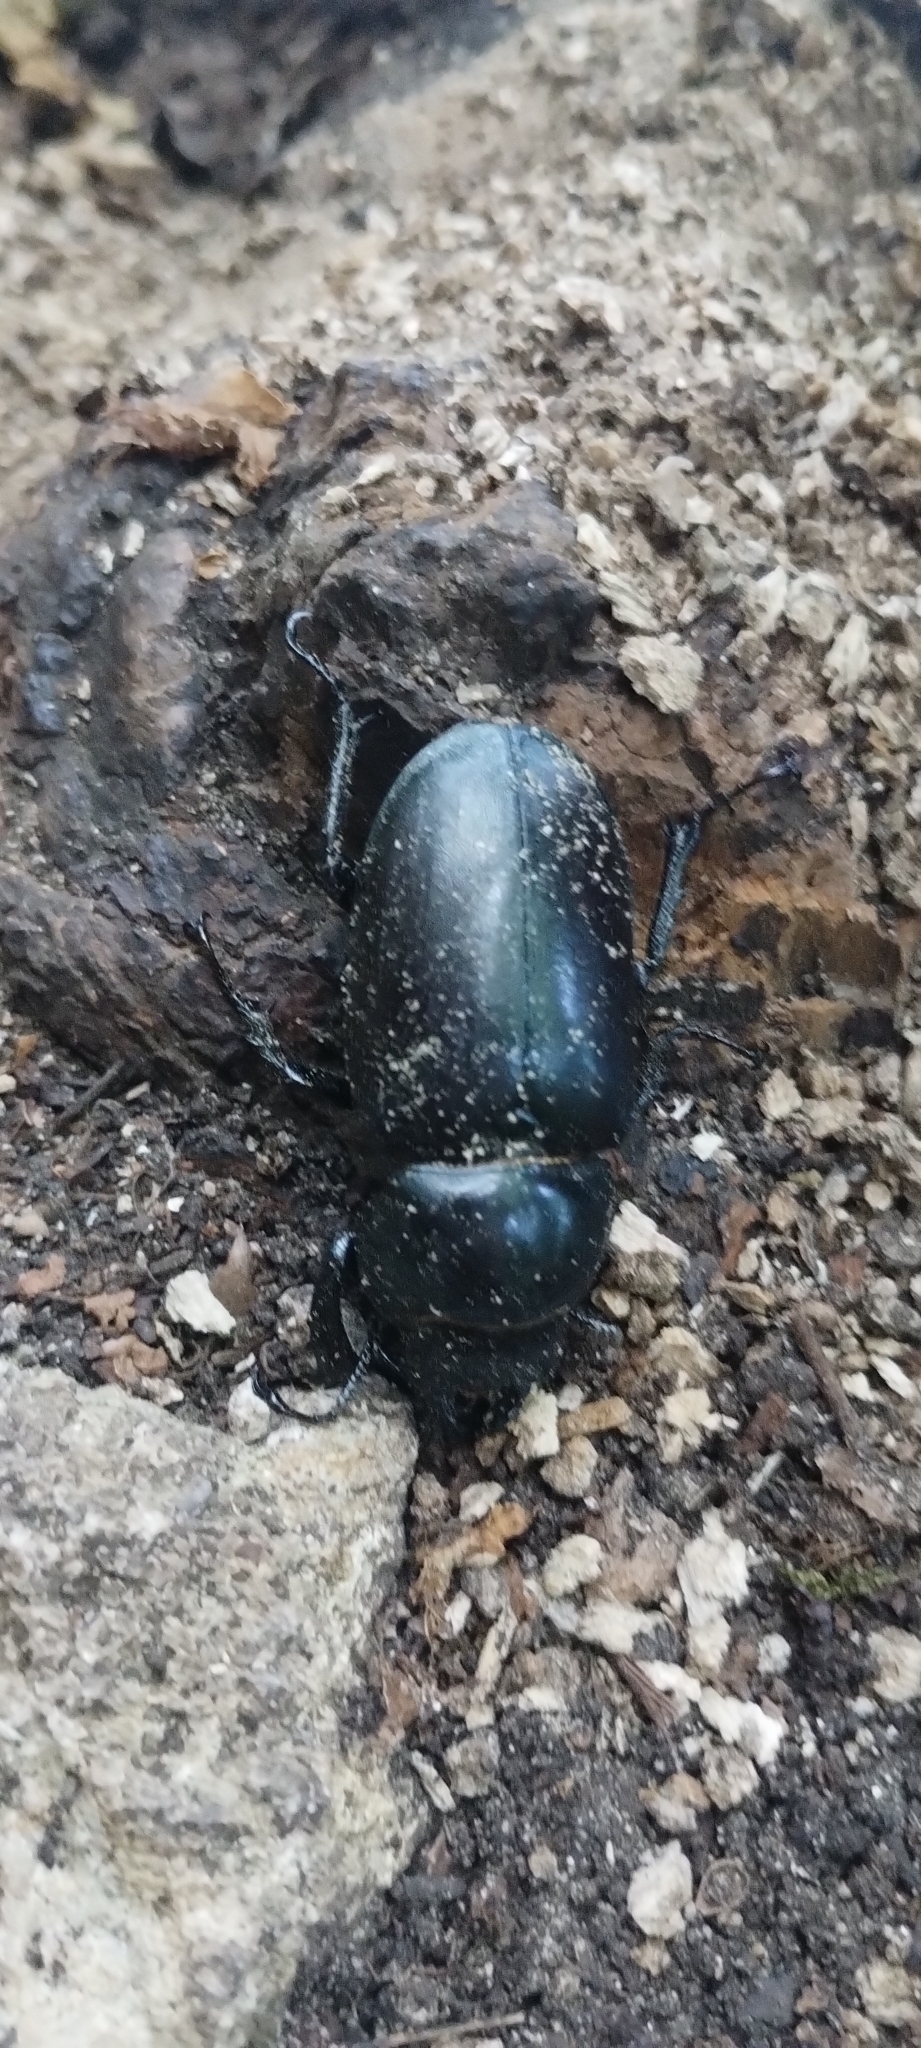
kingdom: Animalia
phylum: Arthropoda
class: Insecta
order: Coleoptera
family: Lucanidae
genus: Lucanus
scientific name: Lucanus cervus
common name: Stag beetle
